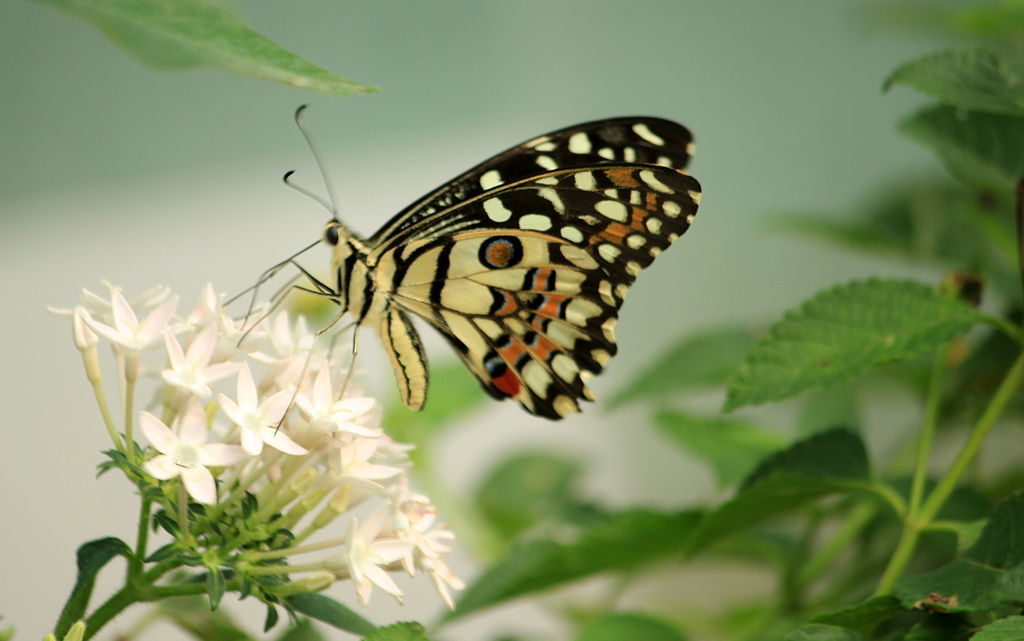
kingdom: Animalia
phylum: Arthropoda
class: Insecta
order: Lepidoptera
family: Papilionidae
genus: Papilio
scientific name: Papilio demoleus
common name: Lime butterfly
